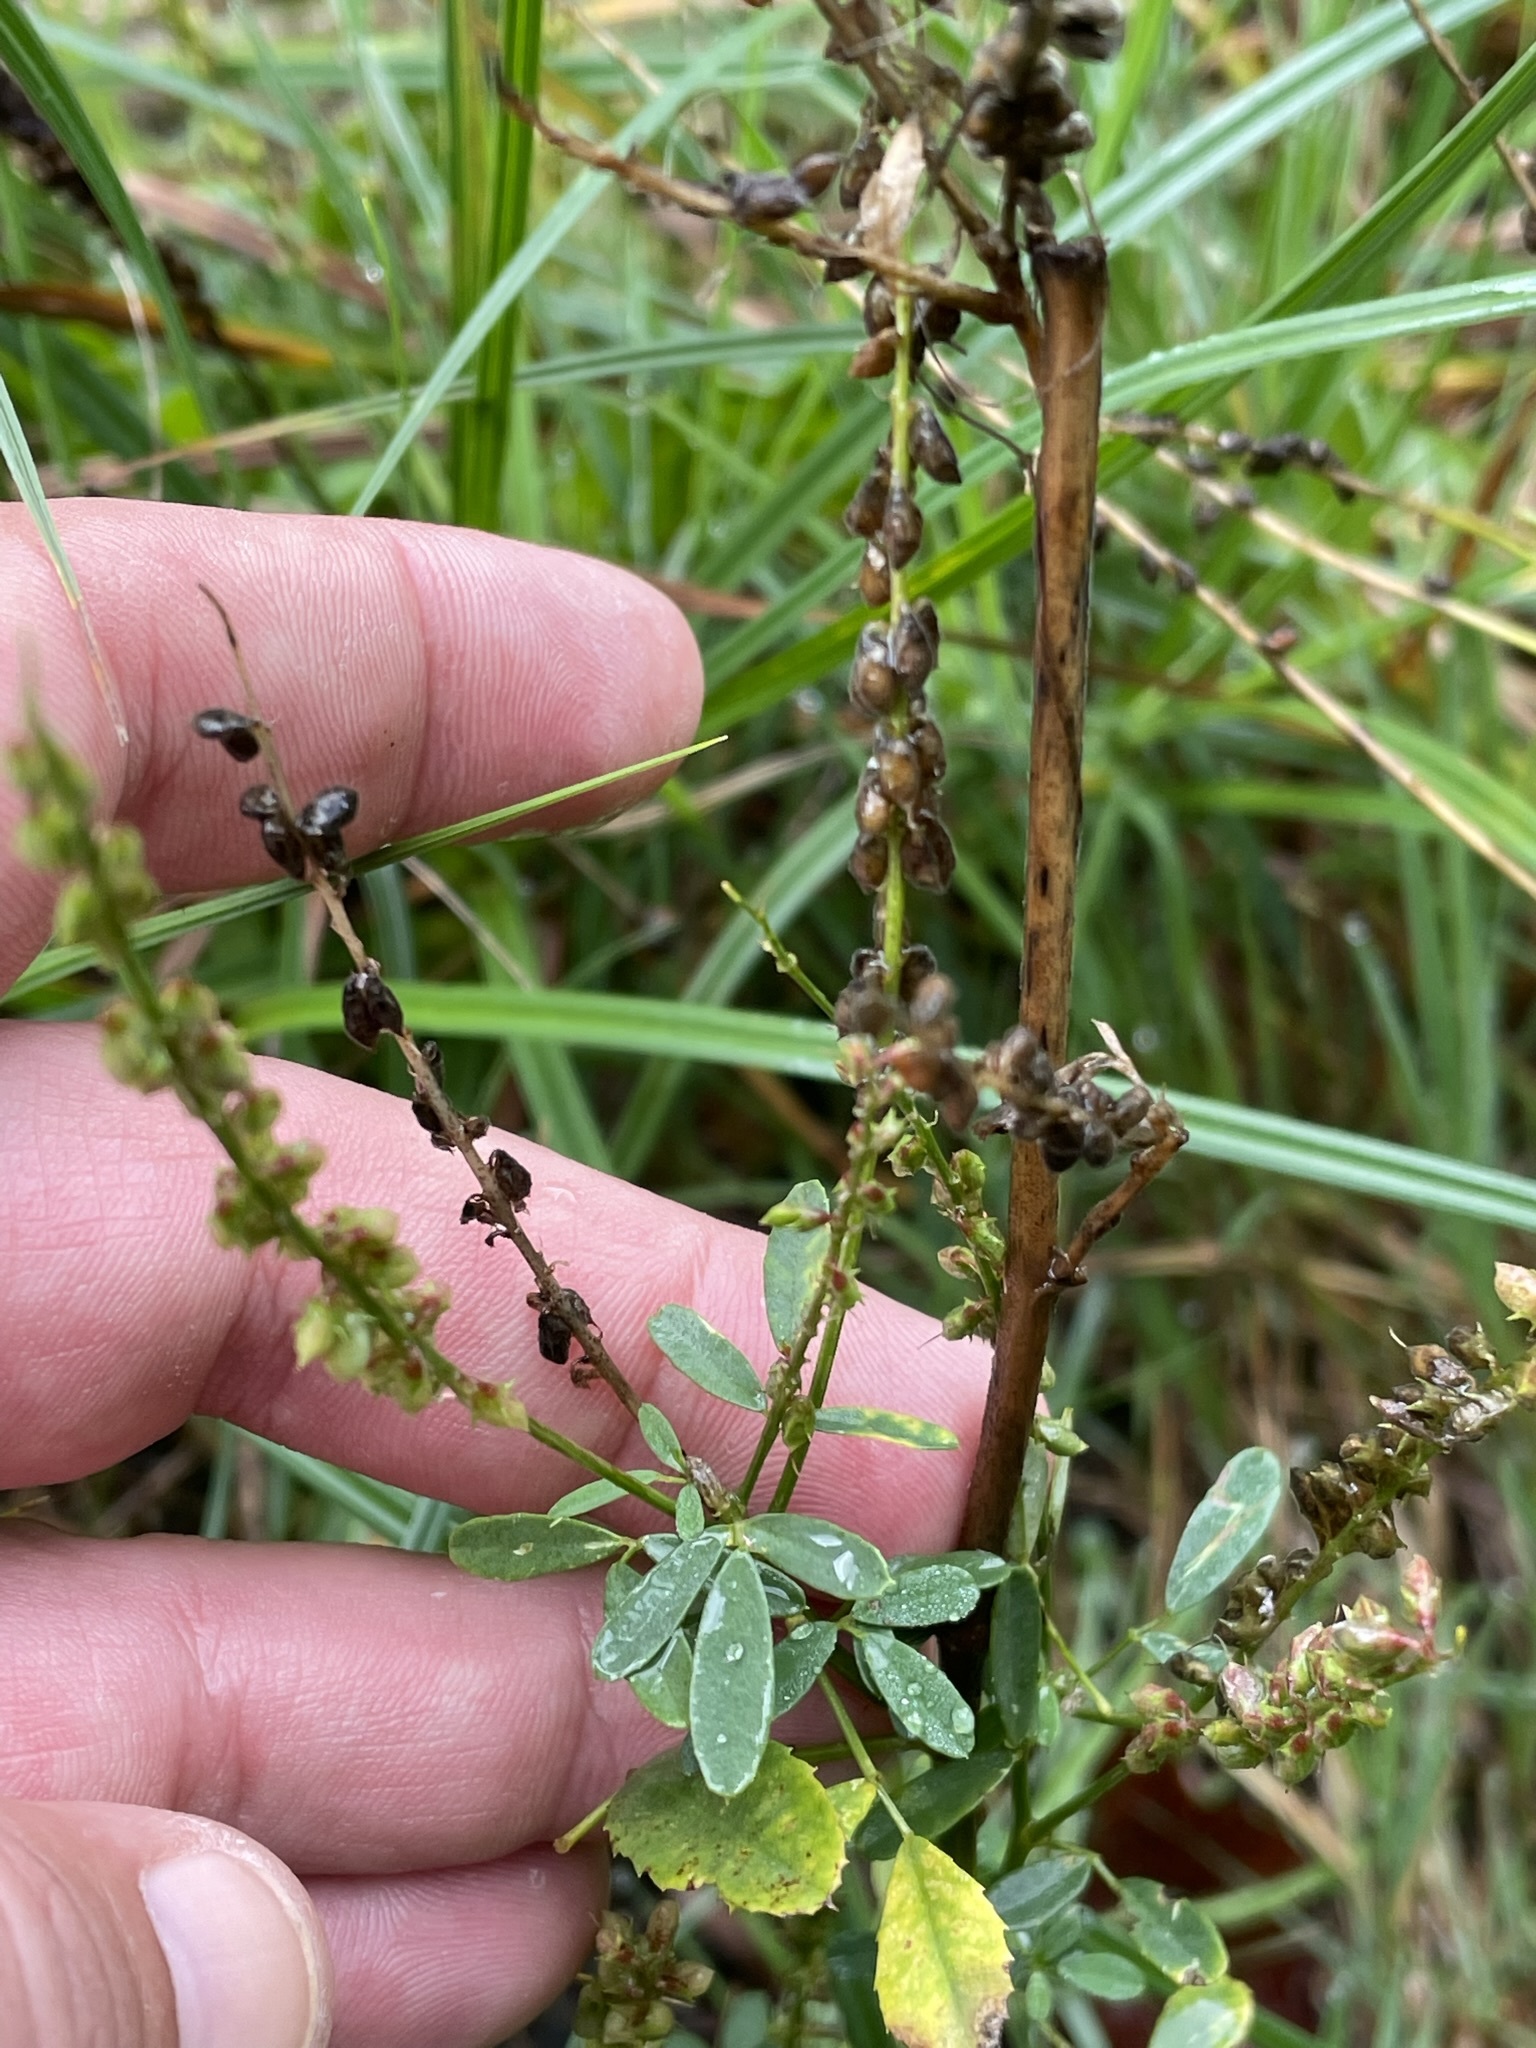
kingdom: Plantae
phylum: Tracheophyta
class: Magnoliopsida
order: Fabales
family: Fabaceae
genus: Melilotus
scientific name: Melilotus albus
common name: White melilot
